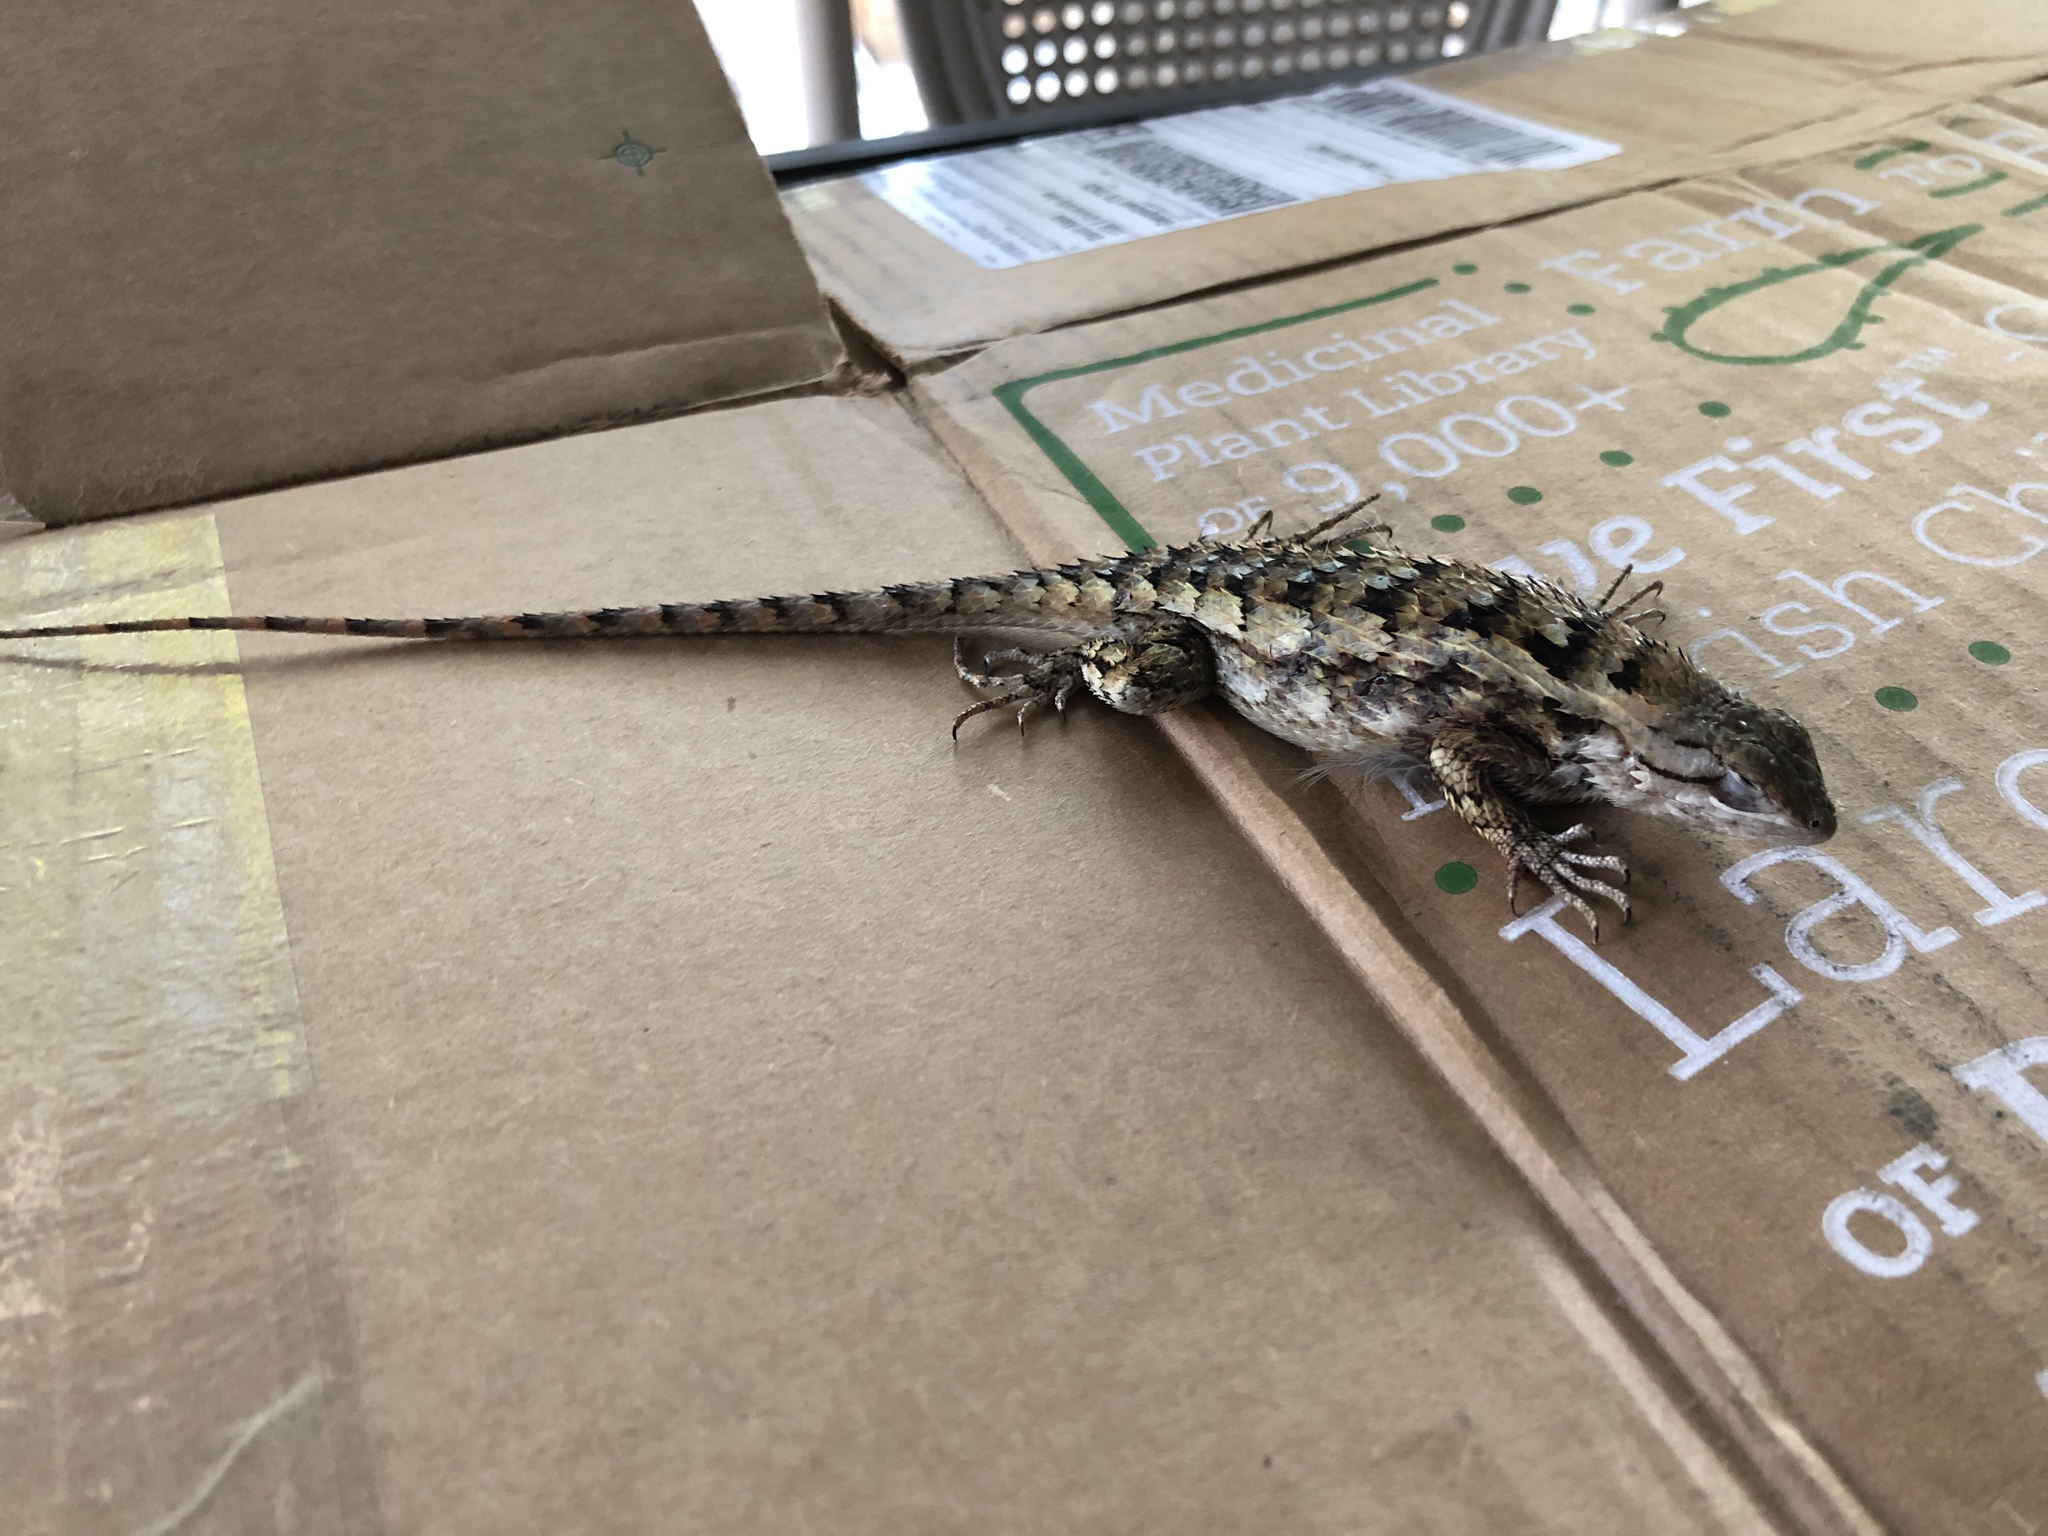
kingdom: Animalia
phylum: Chordata
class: Squamata
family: Phrynosomatidae
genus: Sceloporus
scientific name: Sceloporus olivaceus
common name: Texas spiny lizard
